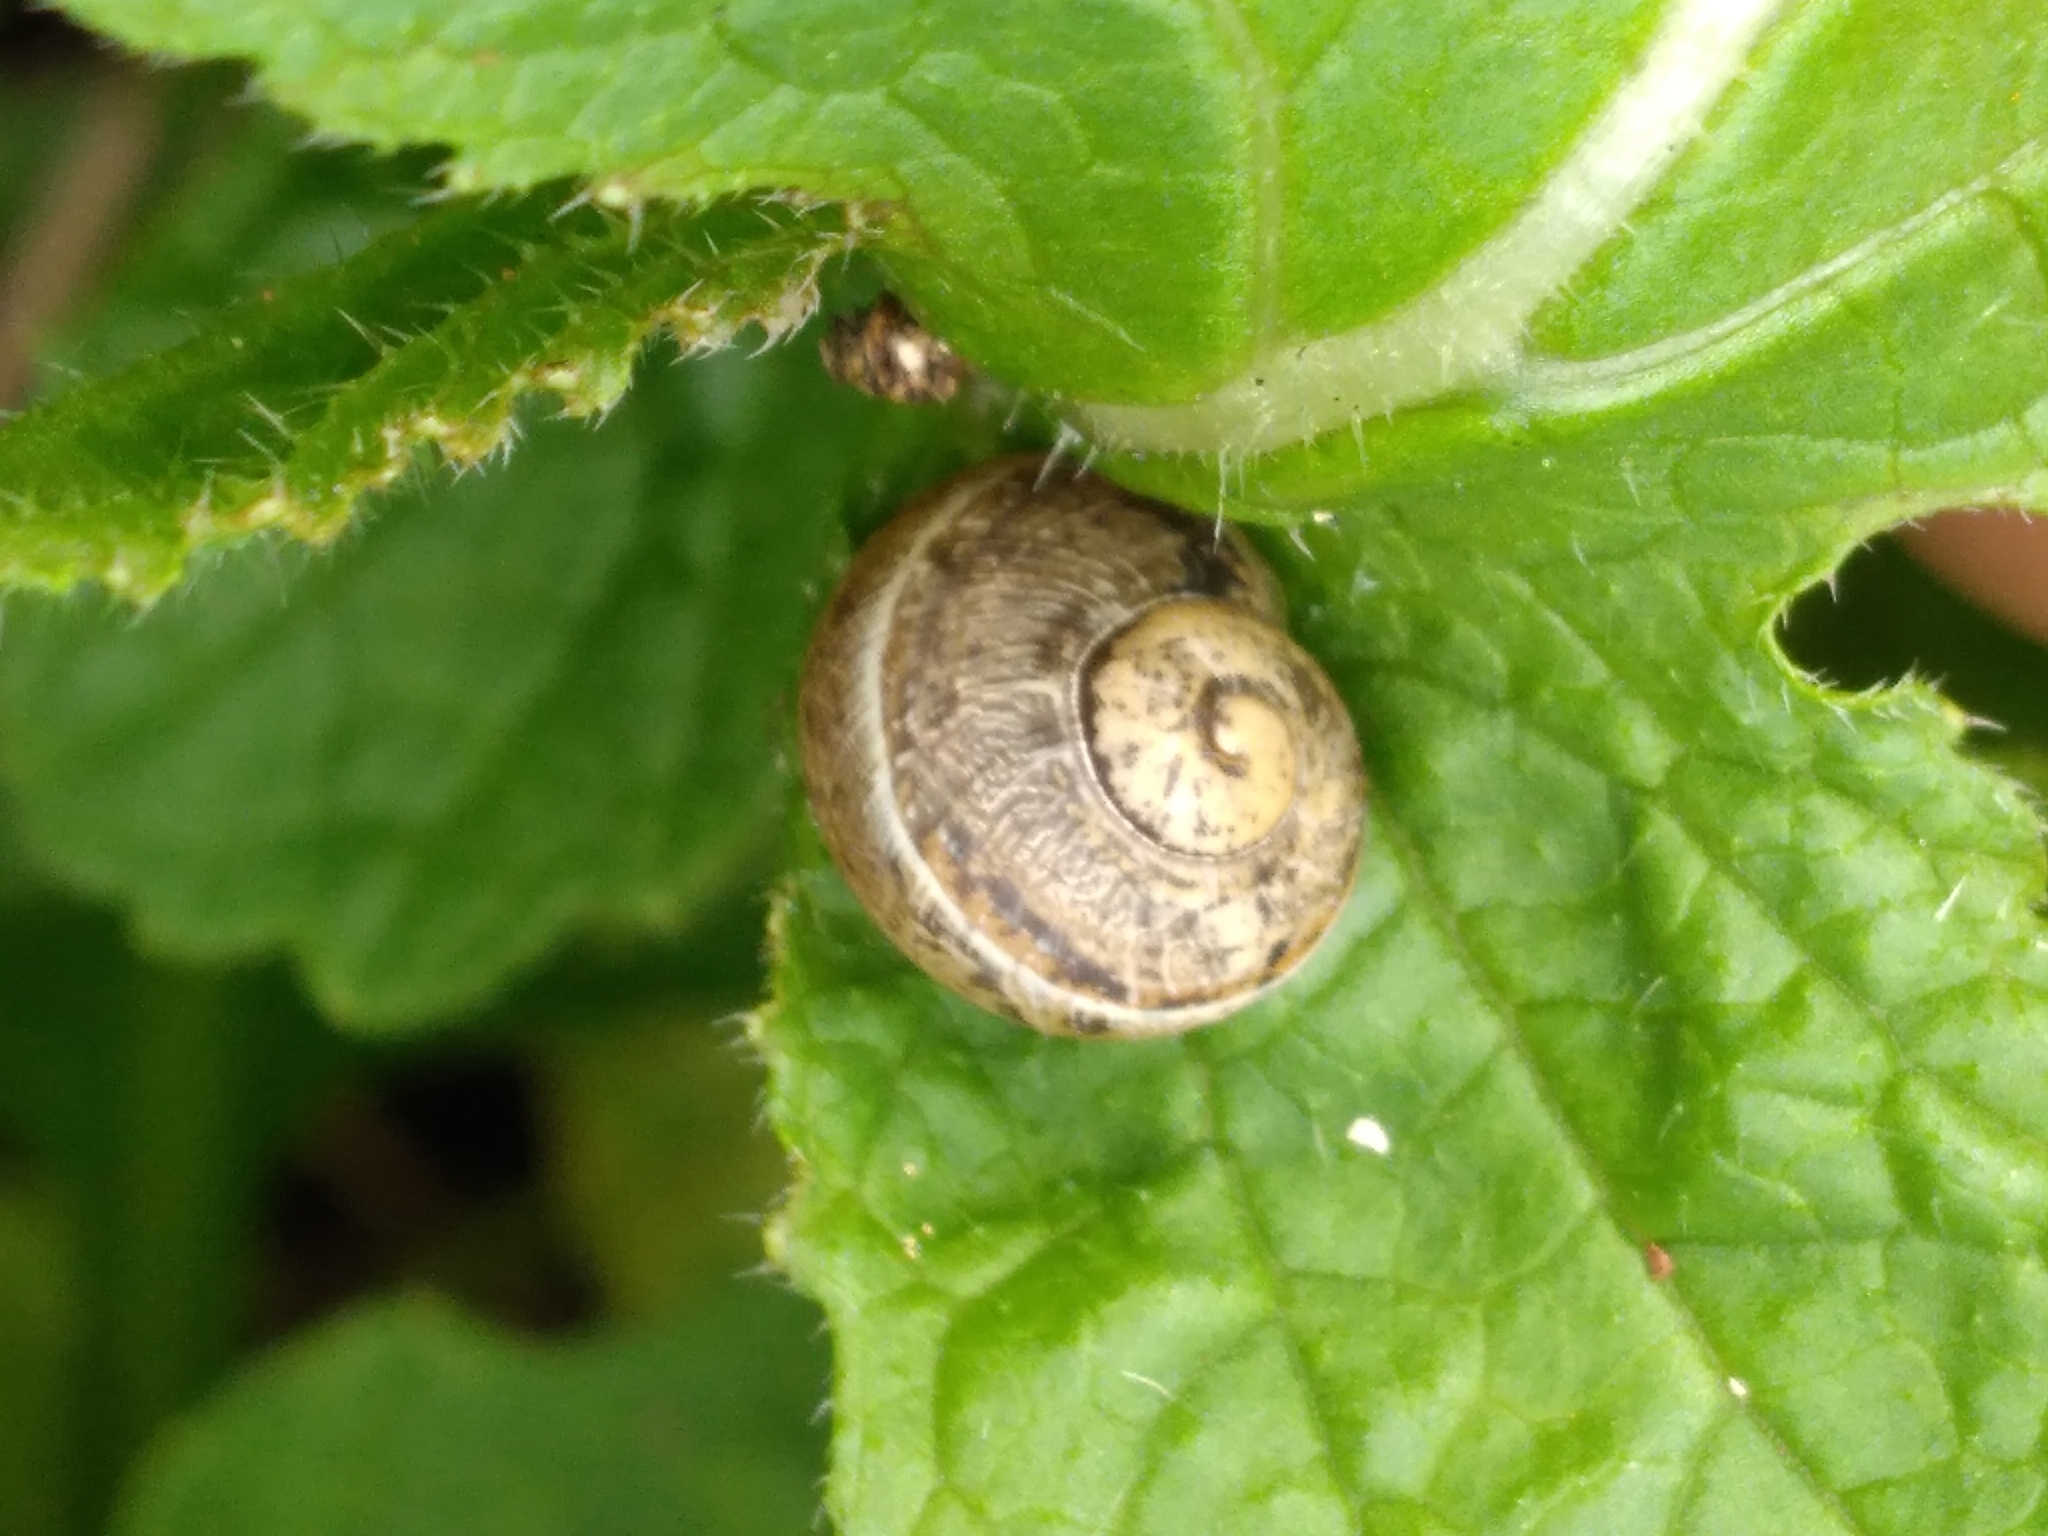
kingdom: Animalia
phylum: Mollusca
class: Gastropoda
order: Stylommatophora
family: Helicidae
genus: Cornu
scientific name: Cornu aspersum
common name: Brown garden snail
